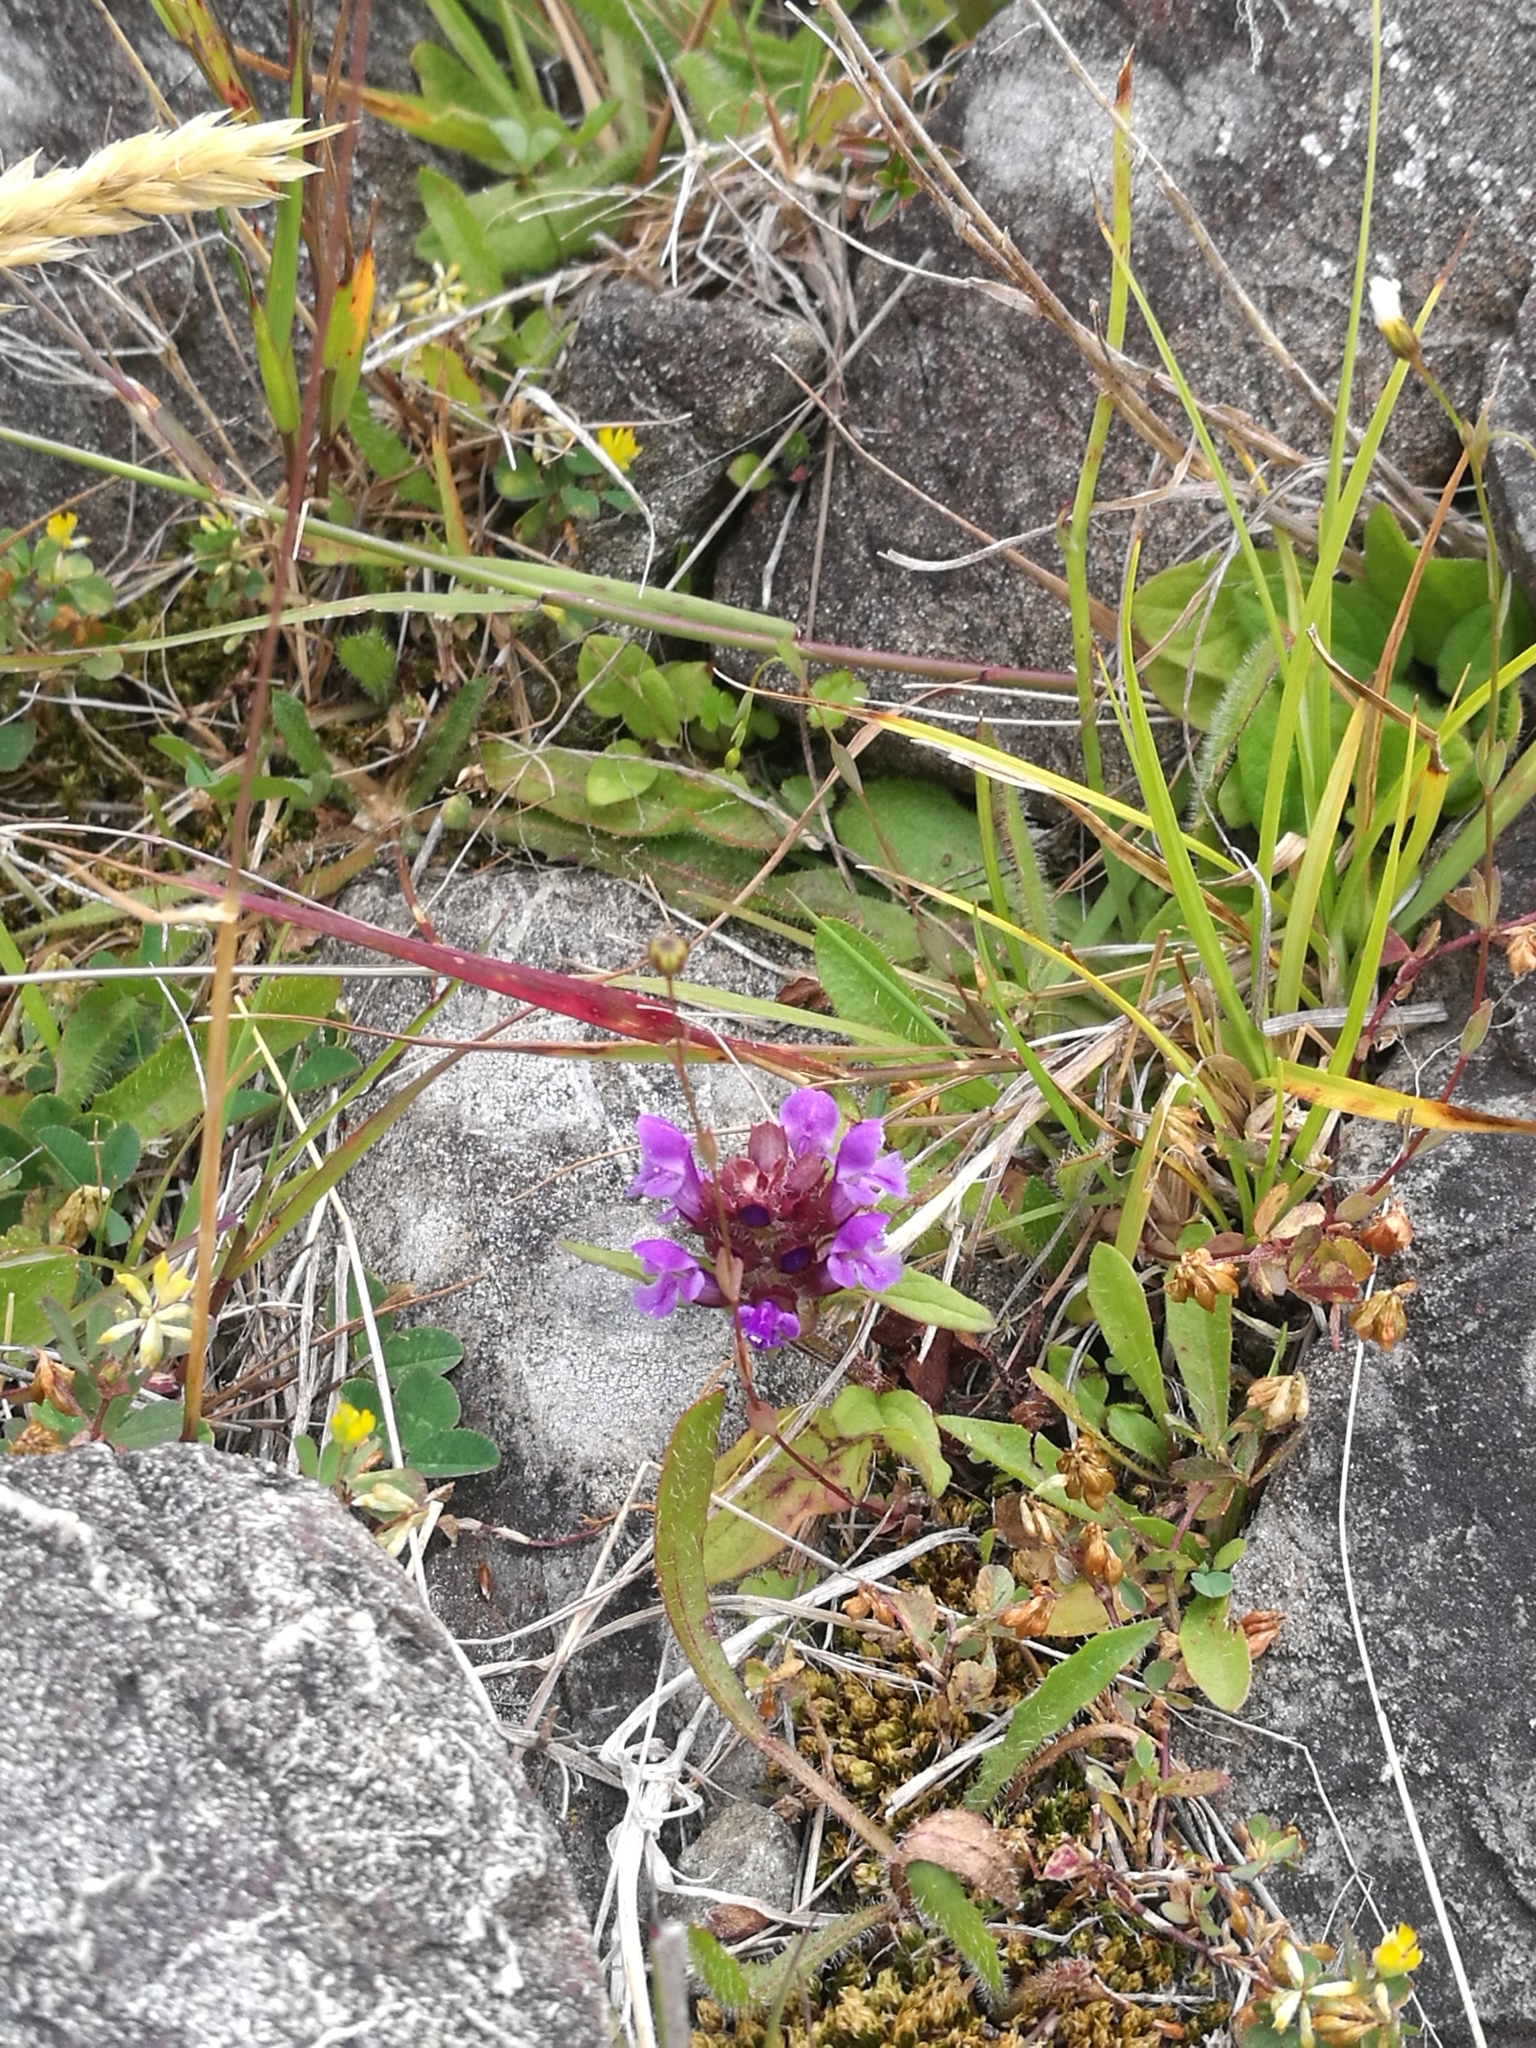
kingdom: Plantae
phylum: Tracheophyta
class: Magnoliopsida
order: Lamiales
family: Lamiaceae
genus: Prunella
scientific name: Prunella vulgaris
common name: Heal-all
